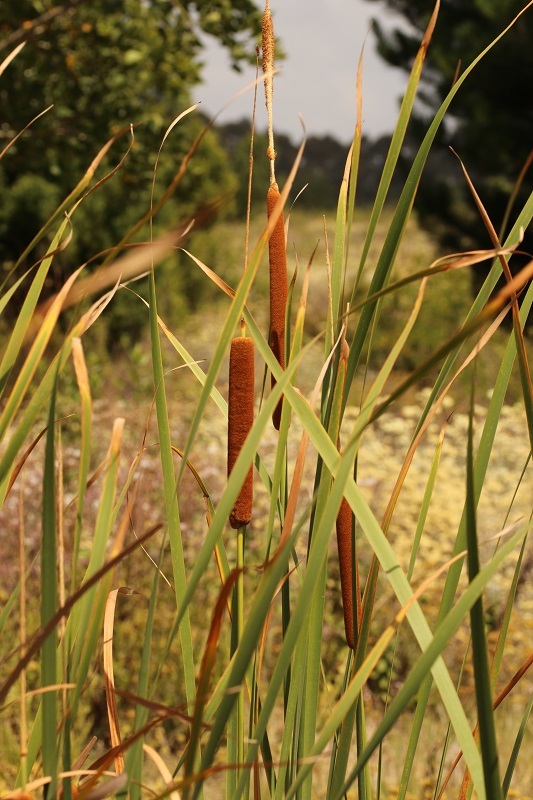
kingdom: Plantae
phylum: Tracheophyta
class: Liliopsida
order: Poales
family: Typhaceae
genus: Typha
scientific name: Typha capensis
